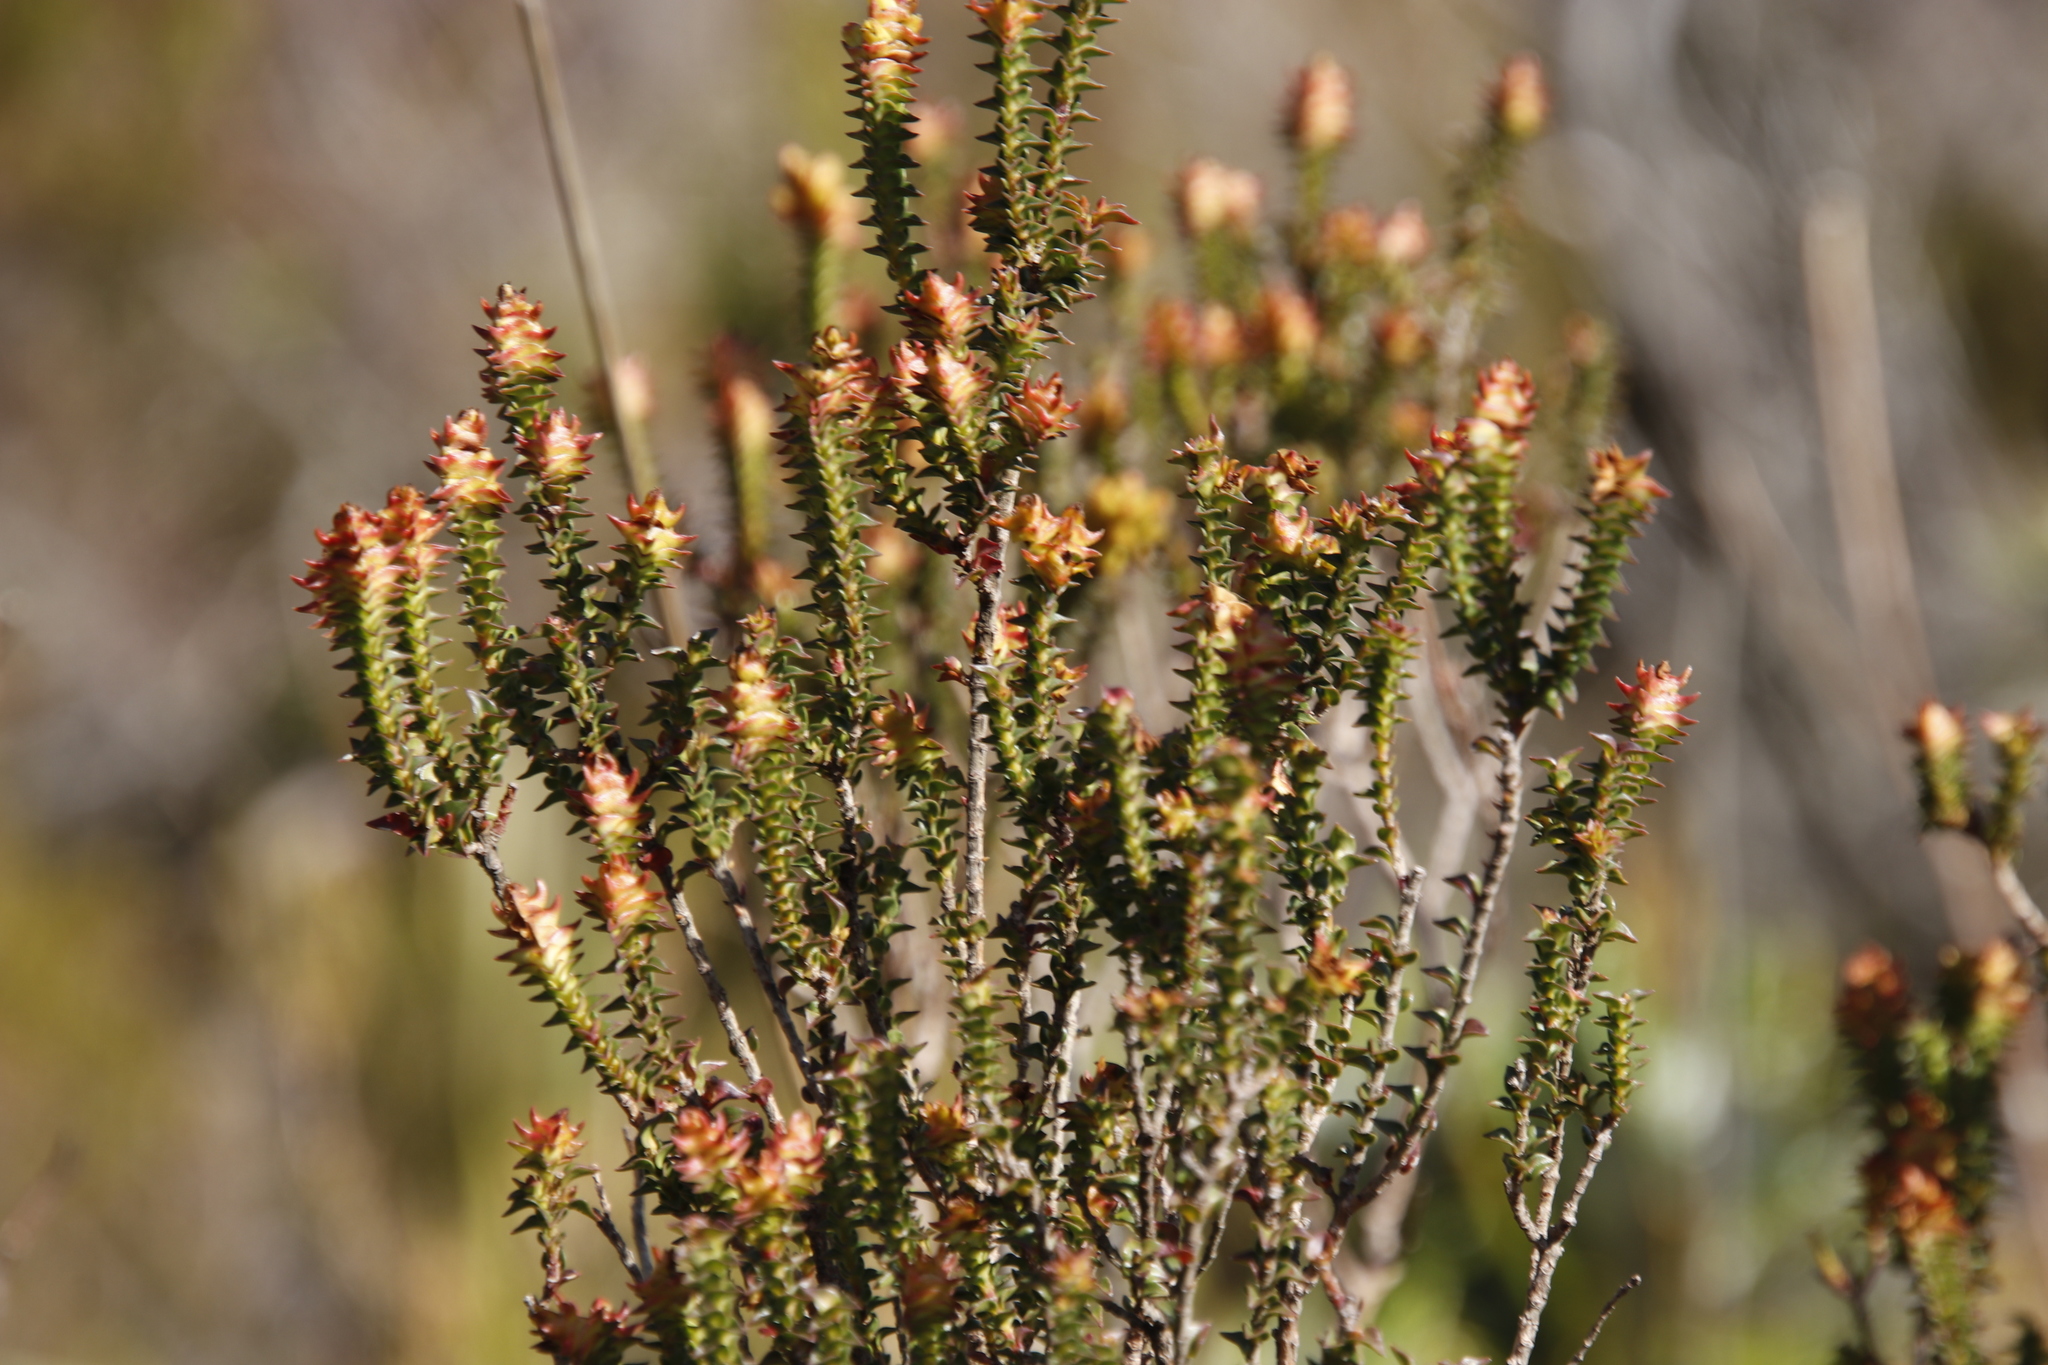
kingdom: Plantae
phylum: Tracheophyta
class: Magnoliopsida
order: Myrtales
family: Penaeaceae
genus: Penaea
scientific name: Penaea mucronata
